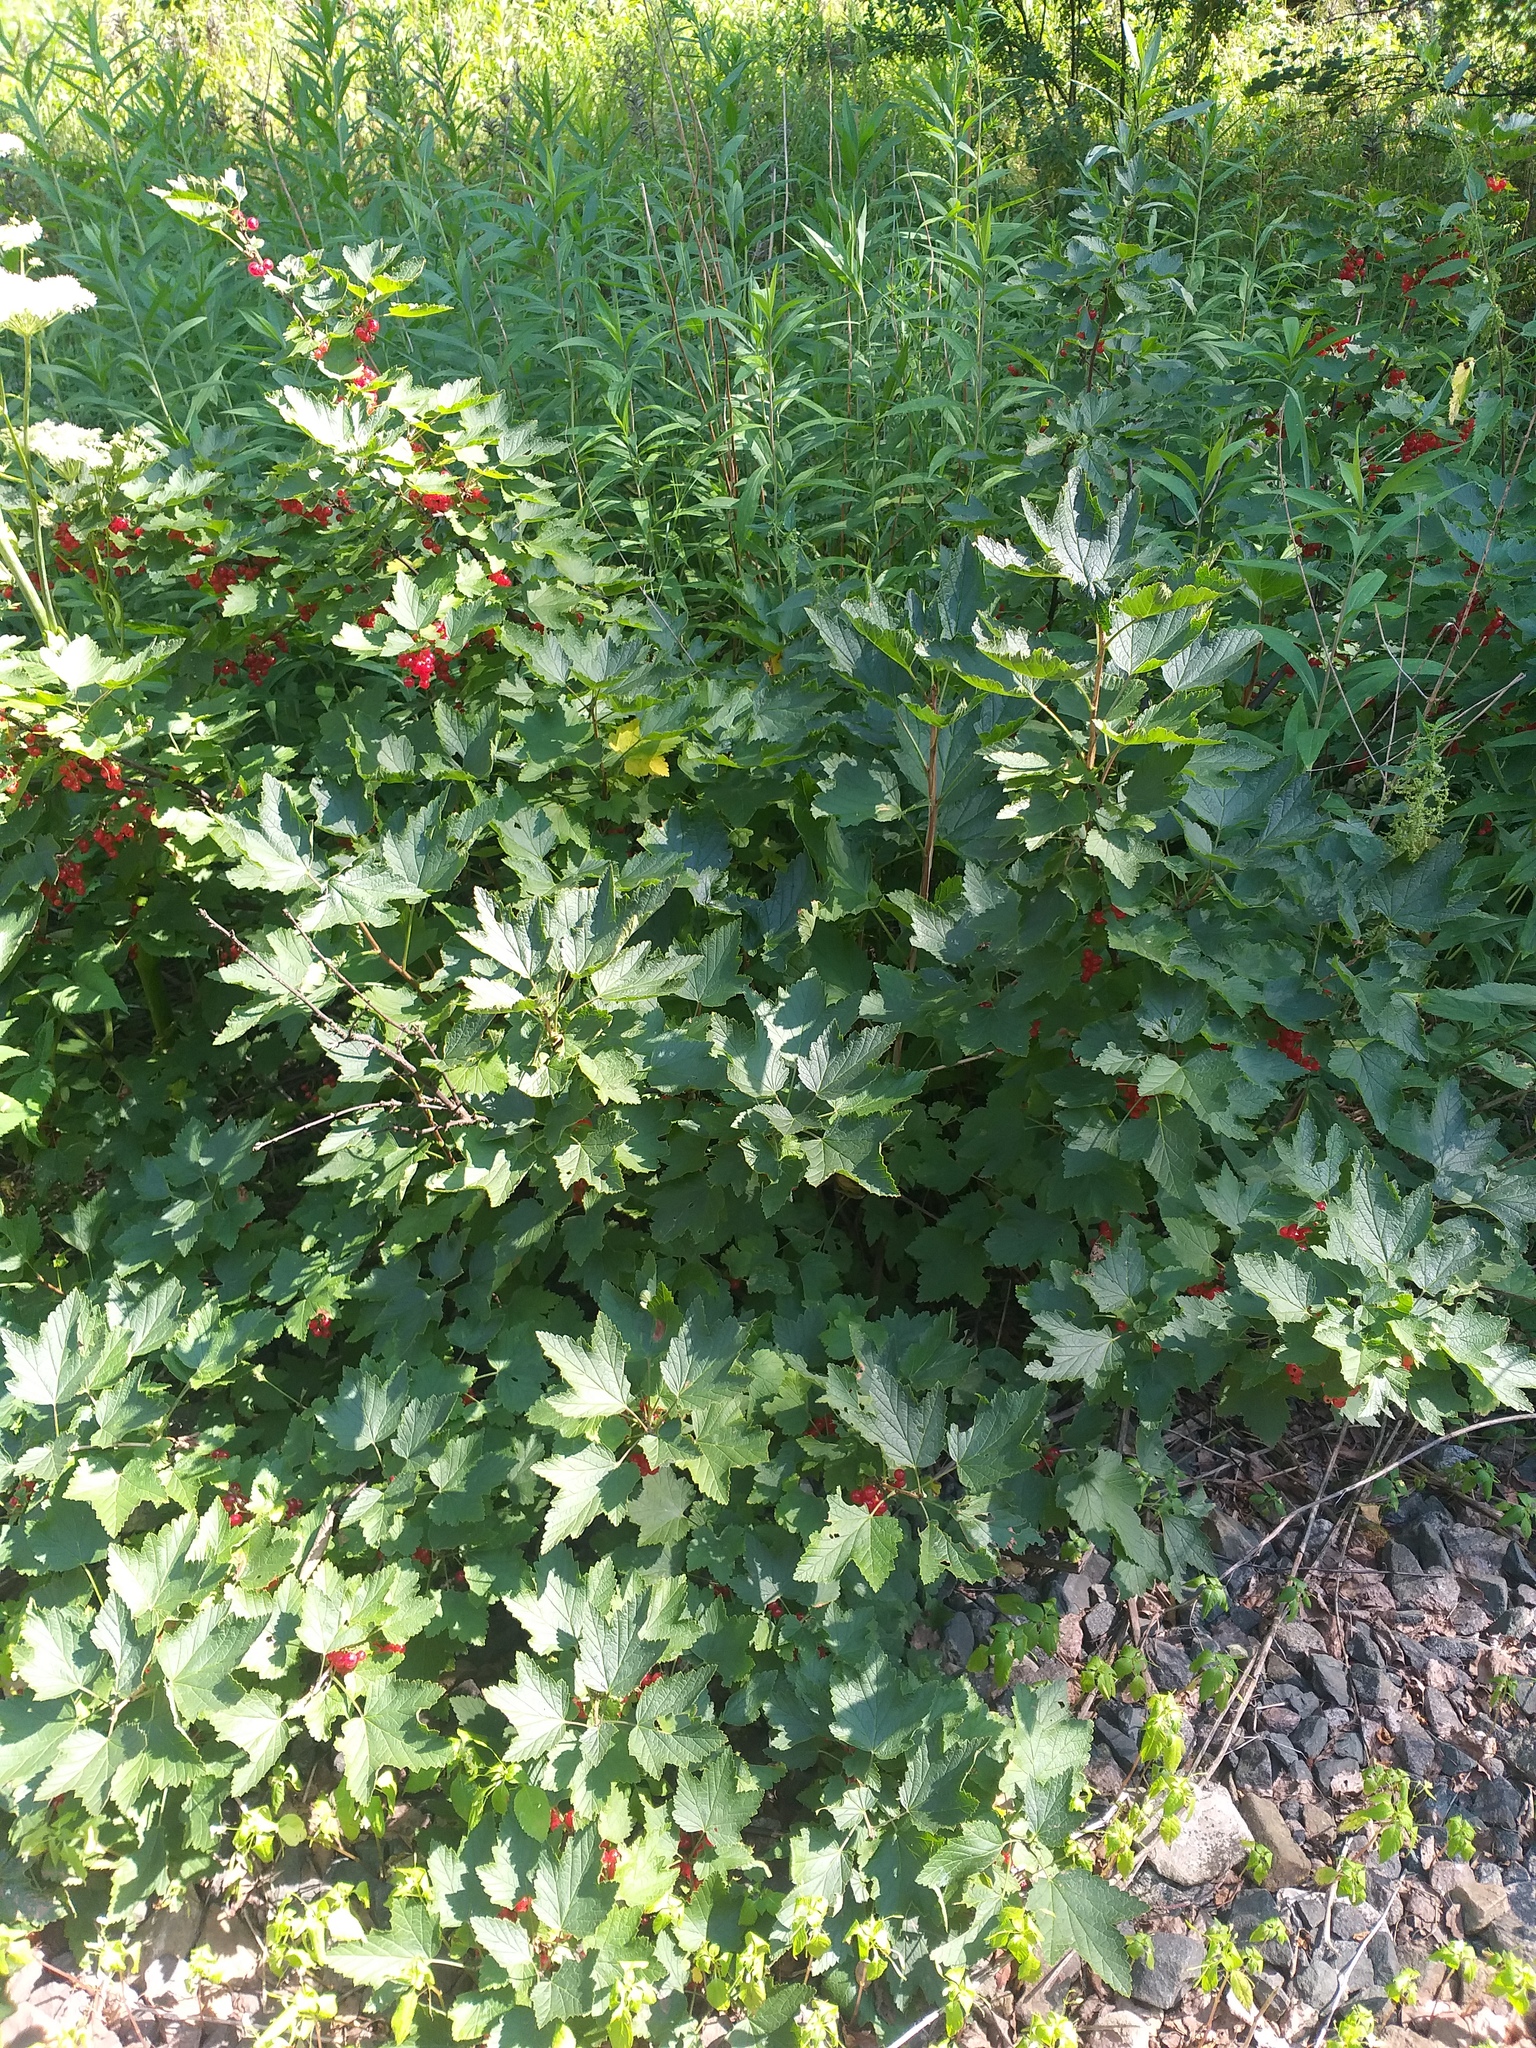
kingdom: Plantae
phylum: Tracheophyta
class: Magnoliopsida
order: Saxifragales
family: Grossulariaceae
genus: Ribes
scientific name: Ribes spicatum
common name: Downy currant
